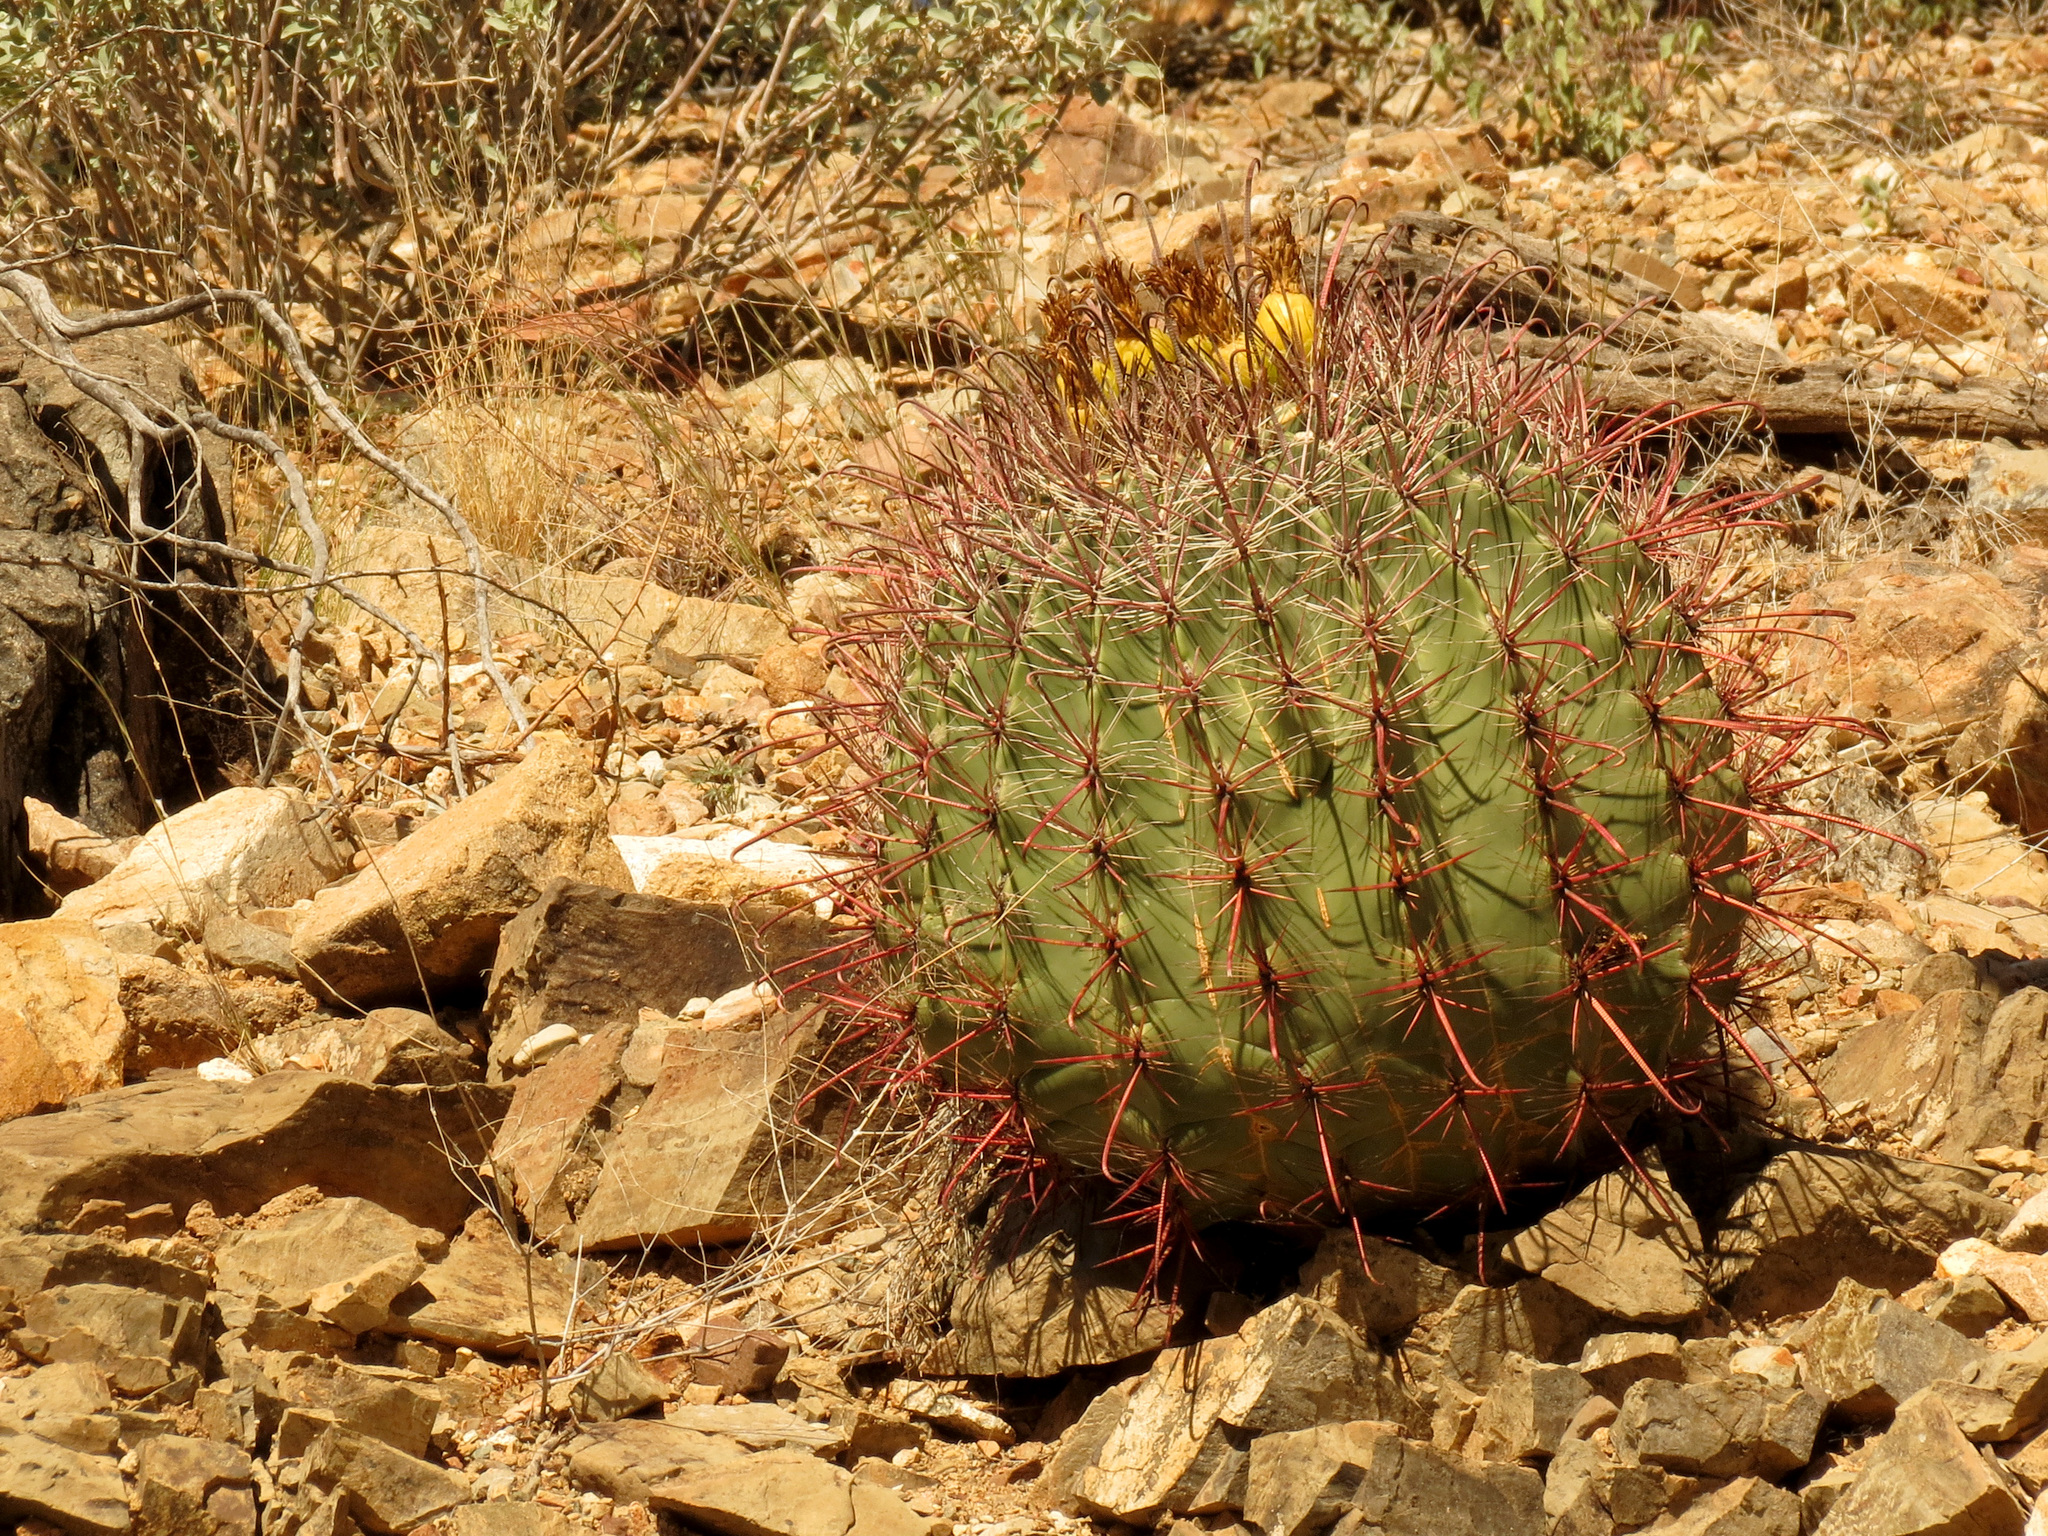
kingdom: Plantae
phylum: Tracheophyta
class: Magnoliopsida
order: Caryophyllales
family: Cactaceae
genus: Ferocactus
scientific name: Ferocactus wislizeni
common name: Candy barrel cactus
